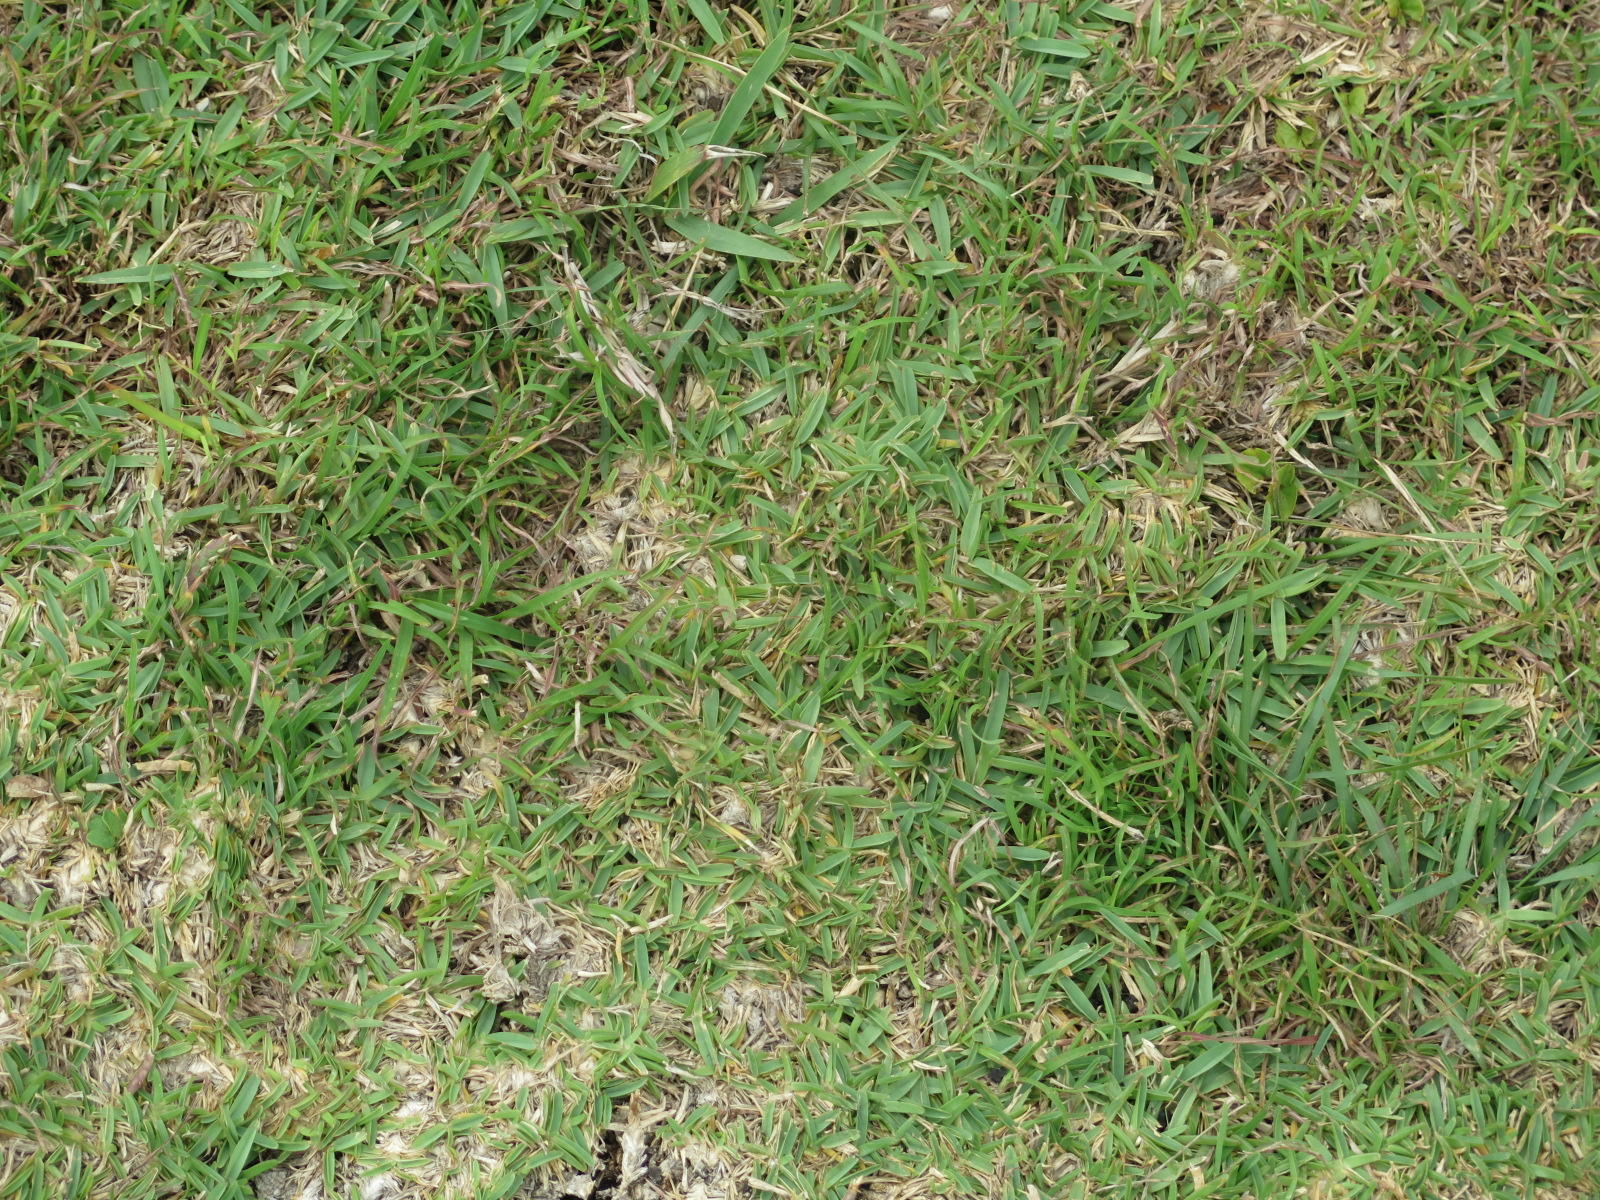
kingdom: Plantae
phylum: Tracheophyta
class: Liliopsida
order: Poales
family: Poaceae
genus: Stenotaphrum
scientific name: Stenotaphrum secundatum
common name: St. augustine grass
